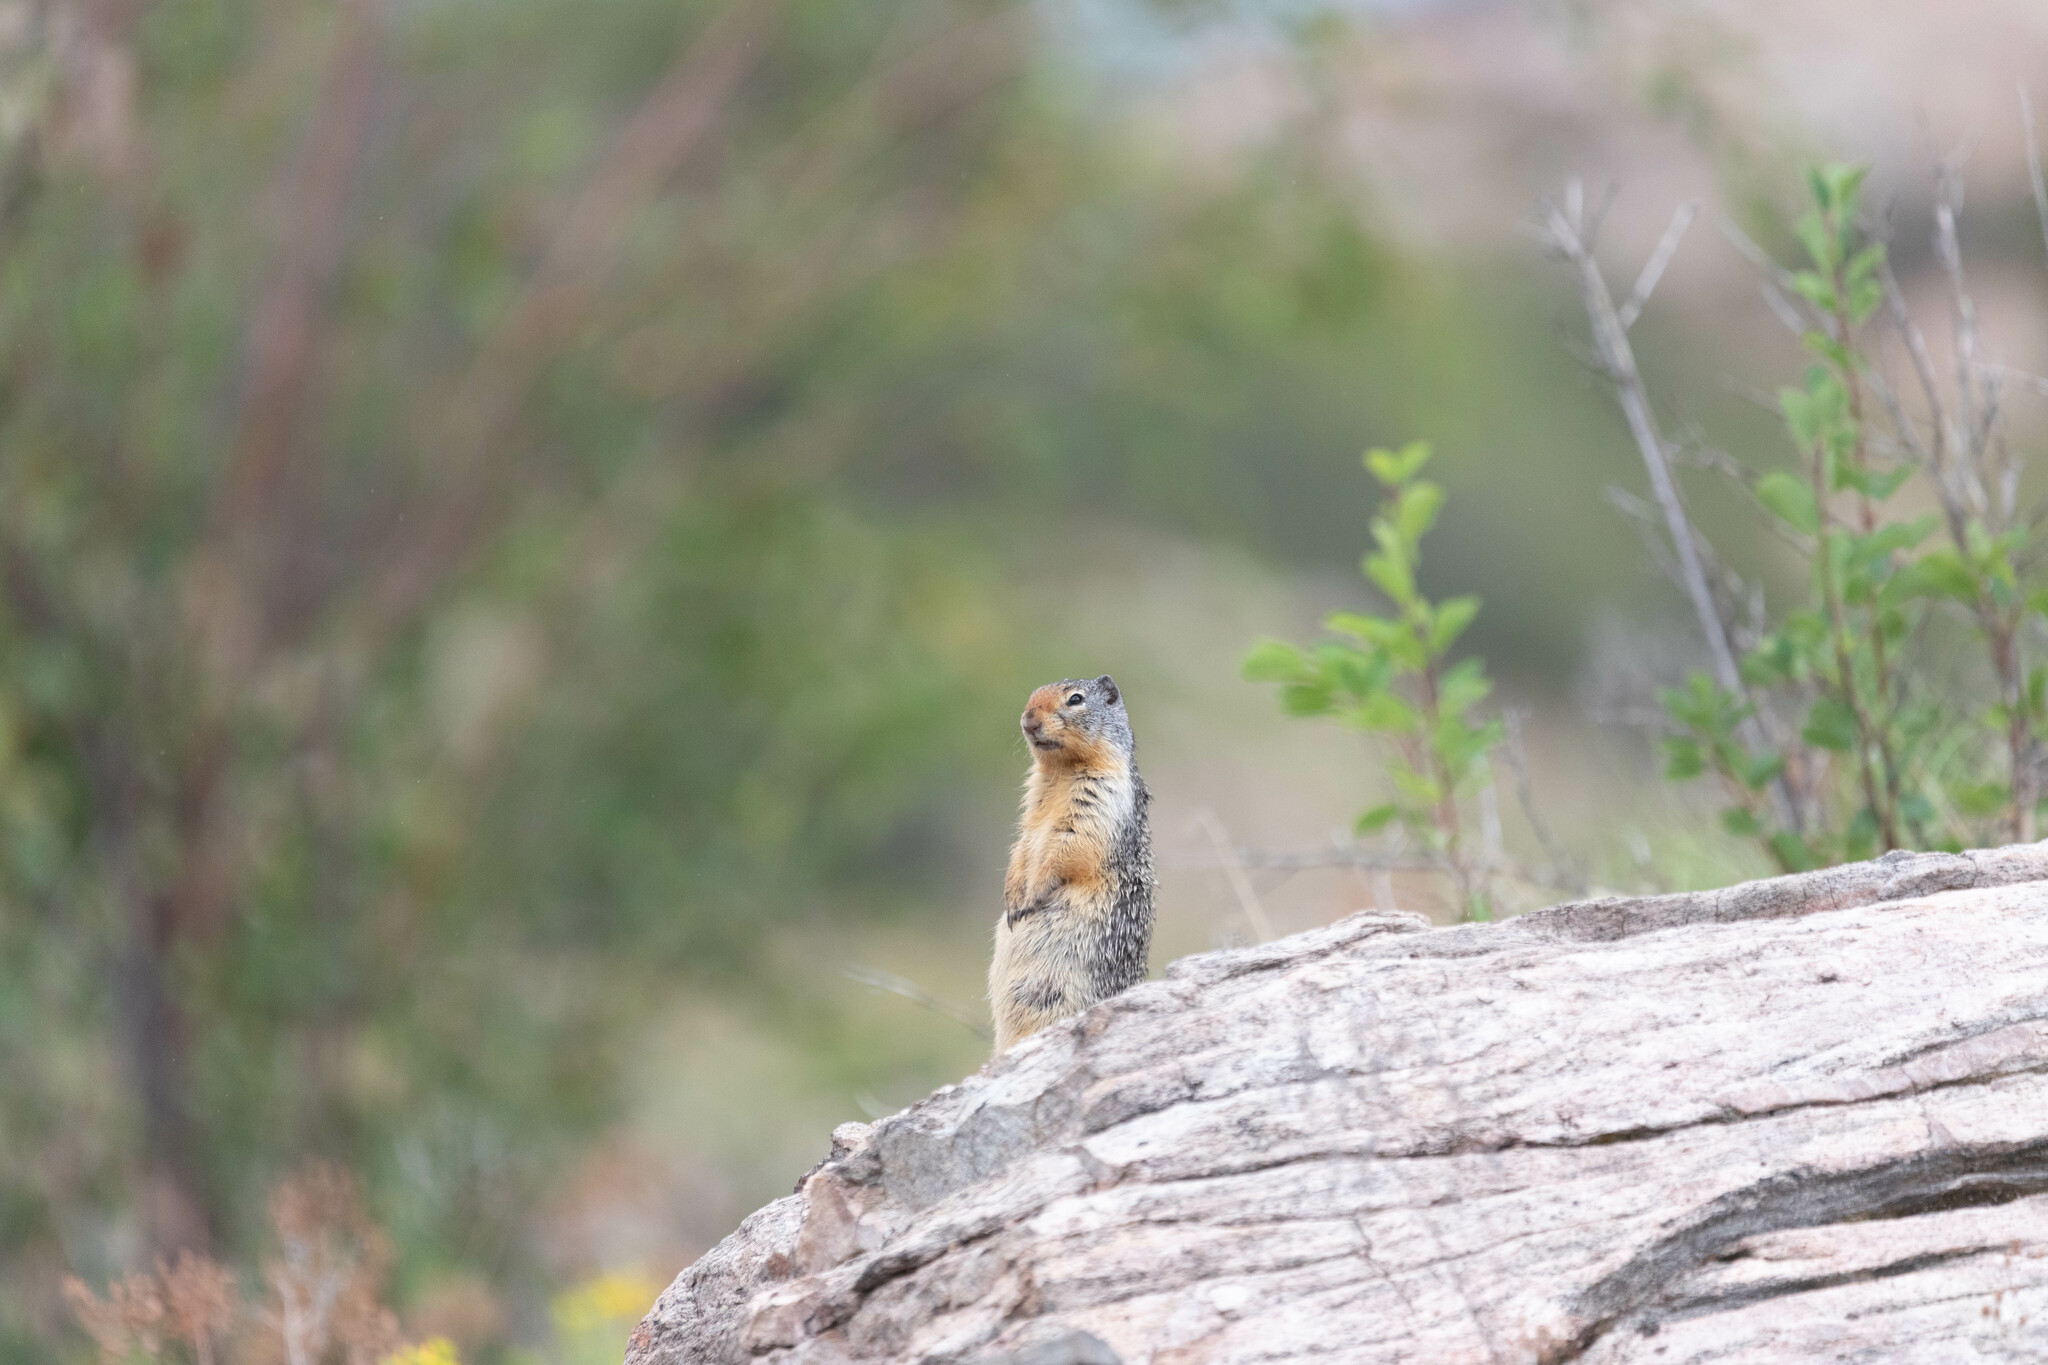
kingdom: Animalia
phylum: Chordata
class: Mammalia
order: Rodentia
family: Sciuridae
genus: Urocitellus
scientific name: Urocitellus columbianus
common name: Columbian ground squirrel
